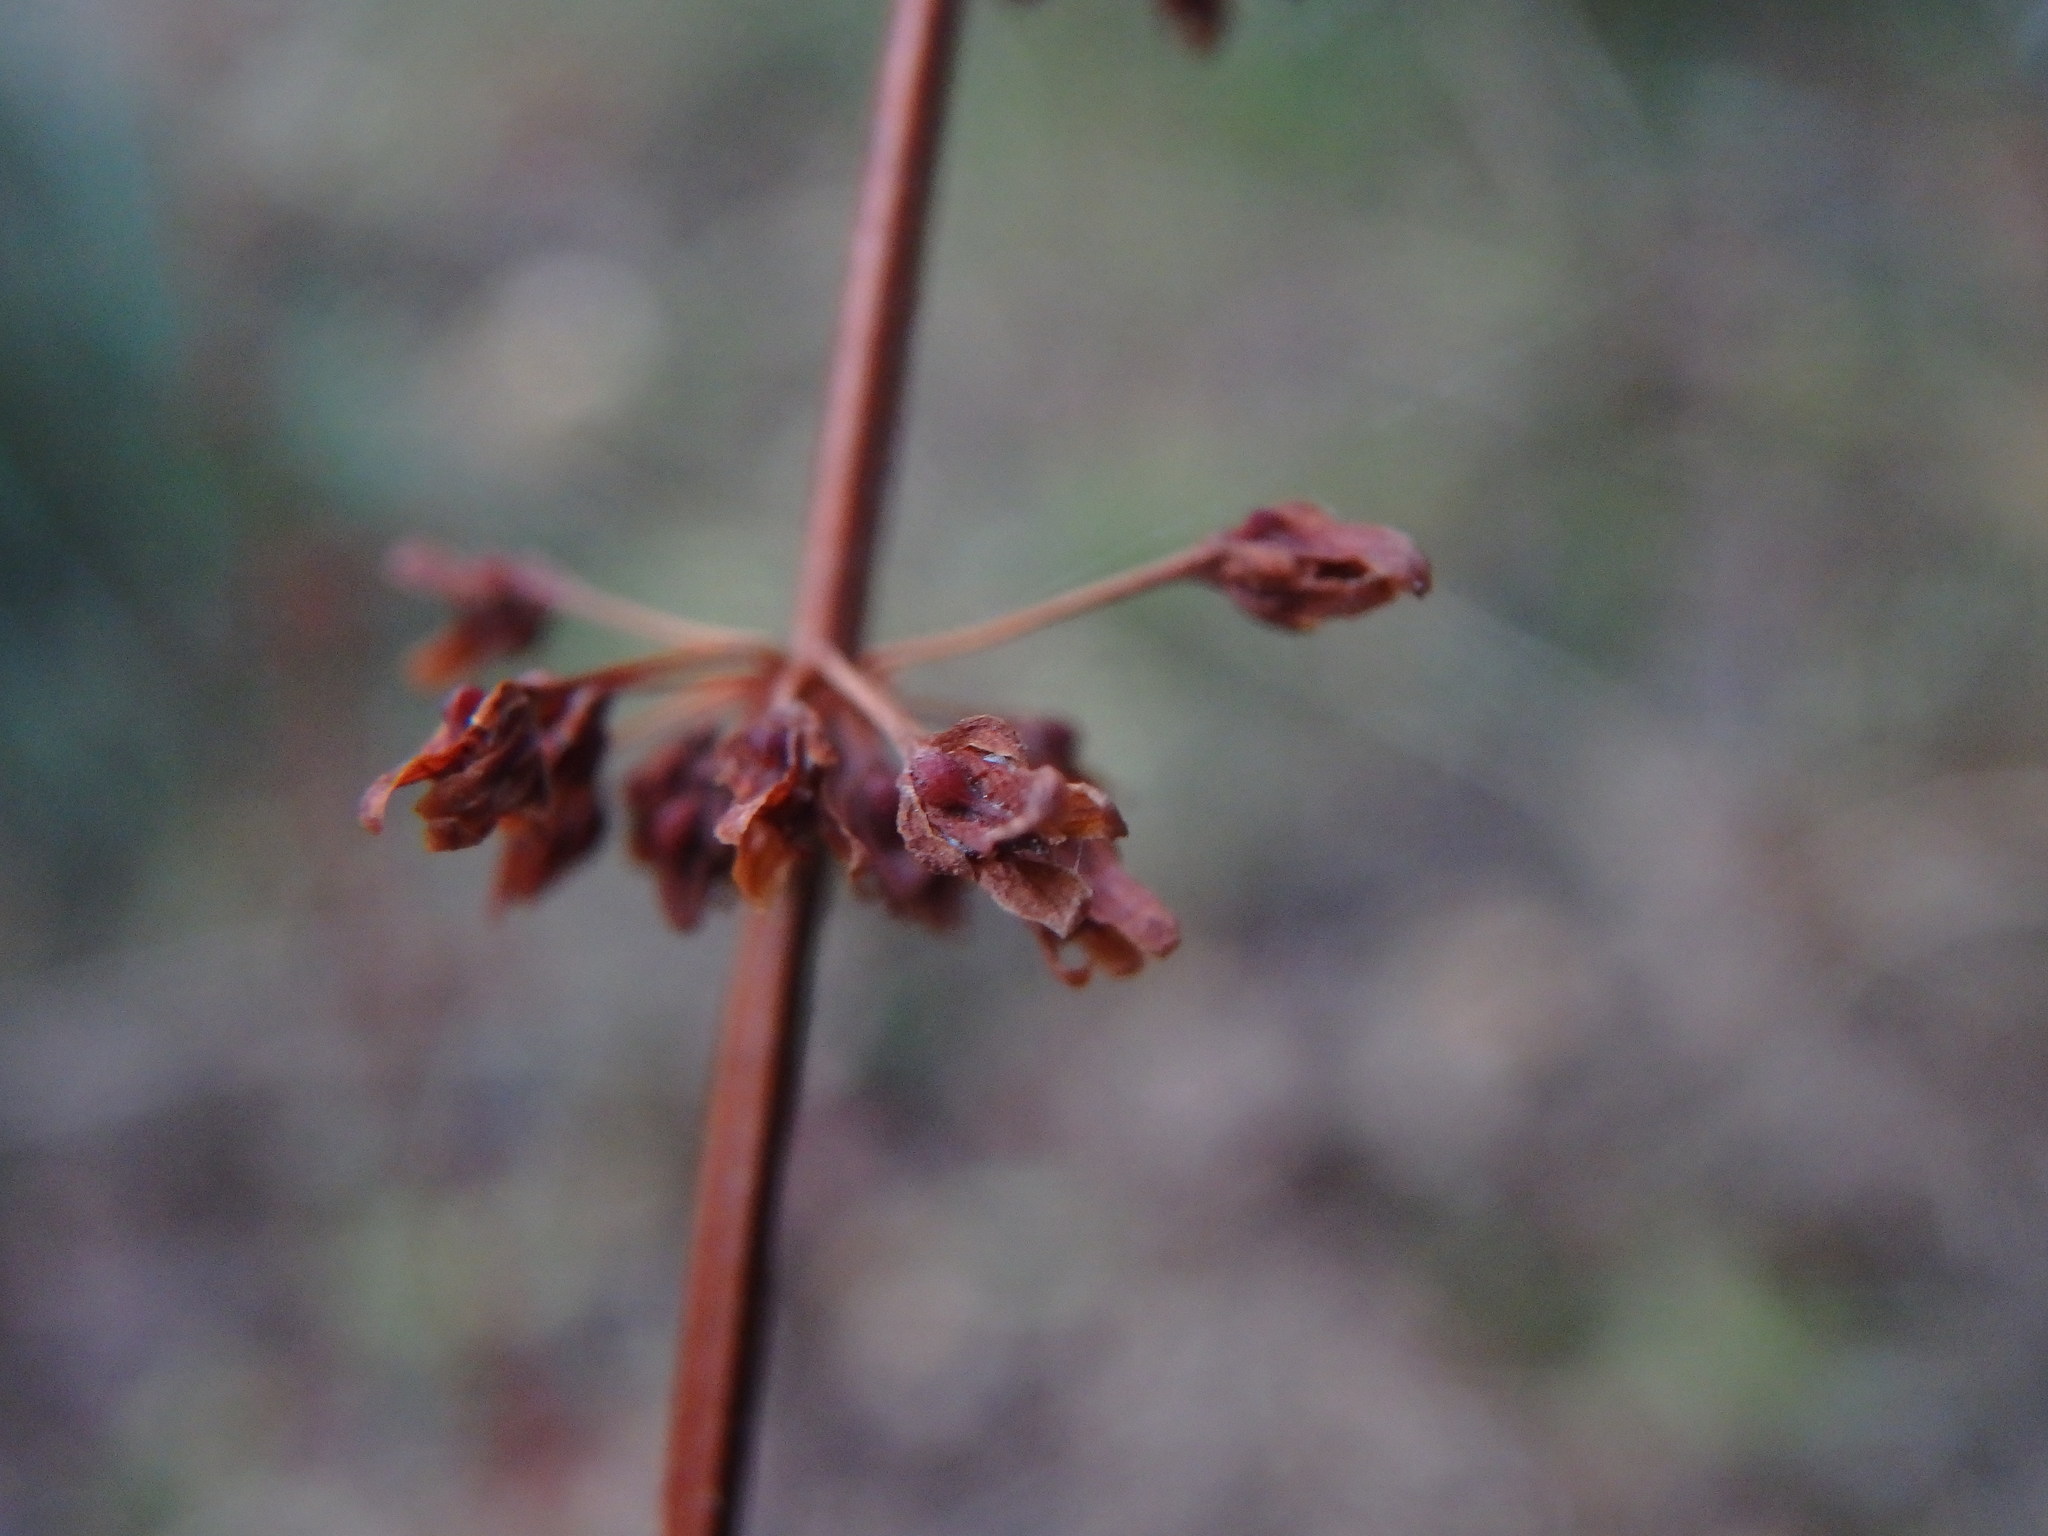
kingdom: Plantae
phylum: Tracheophyta
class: Magnoliopsida
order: Caryophyllales
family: Polygonaceae
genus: Rumex
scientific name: Rumex sanguineus
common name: Wood dock
